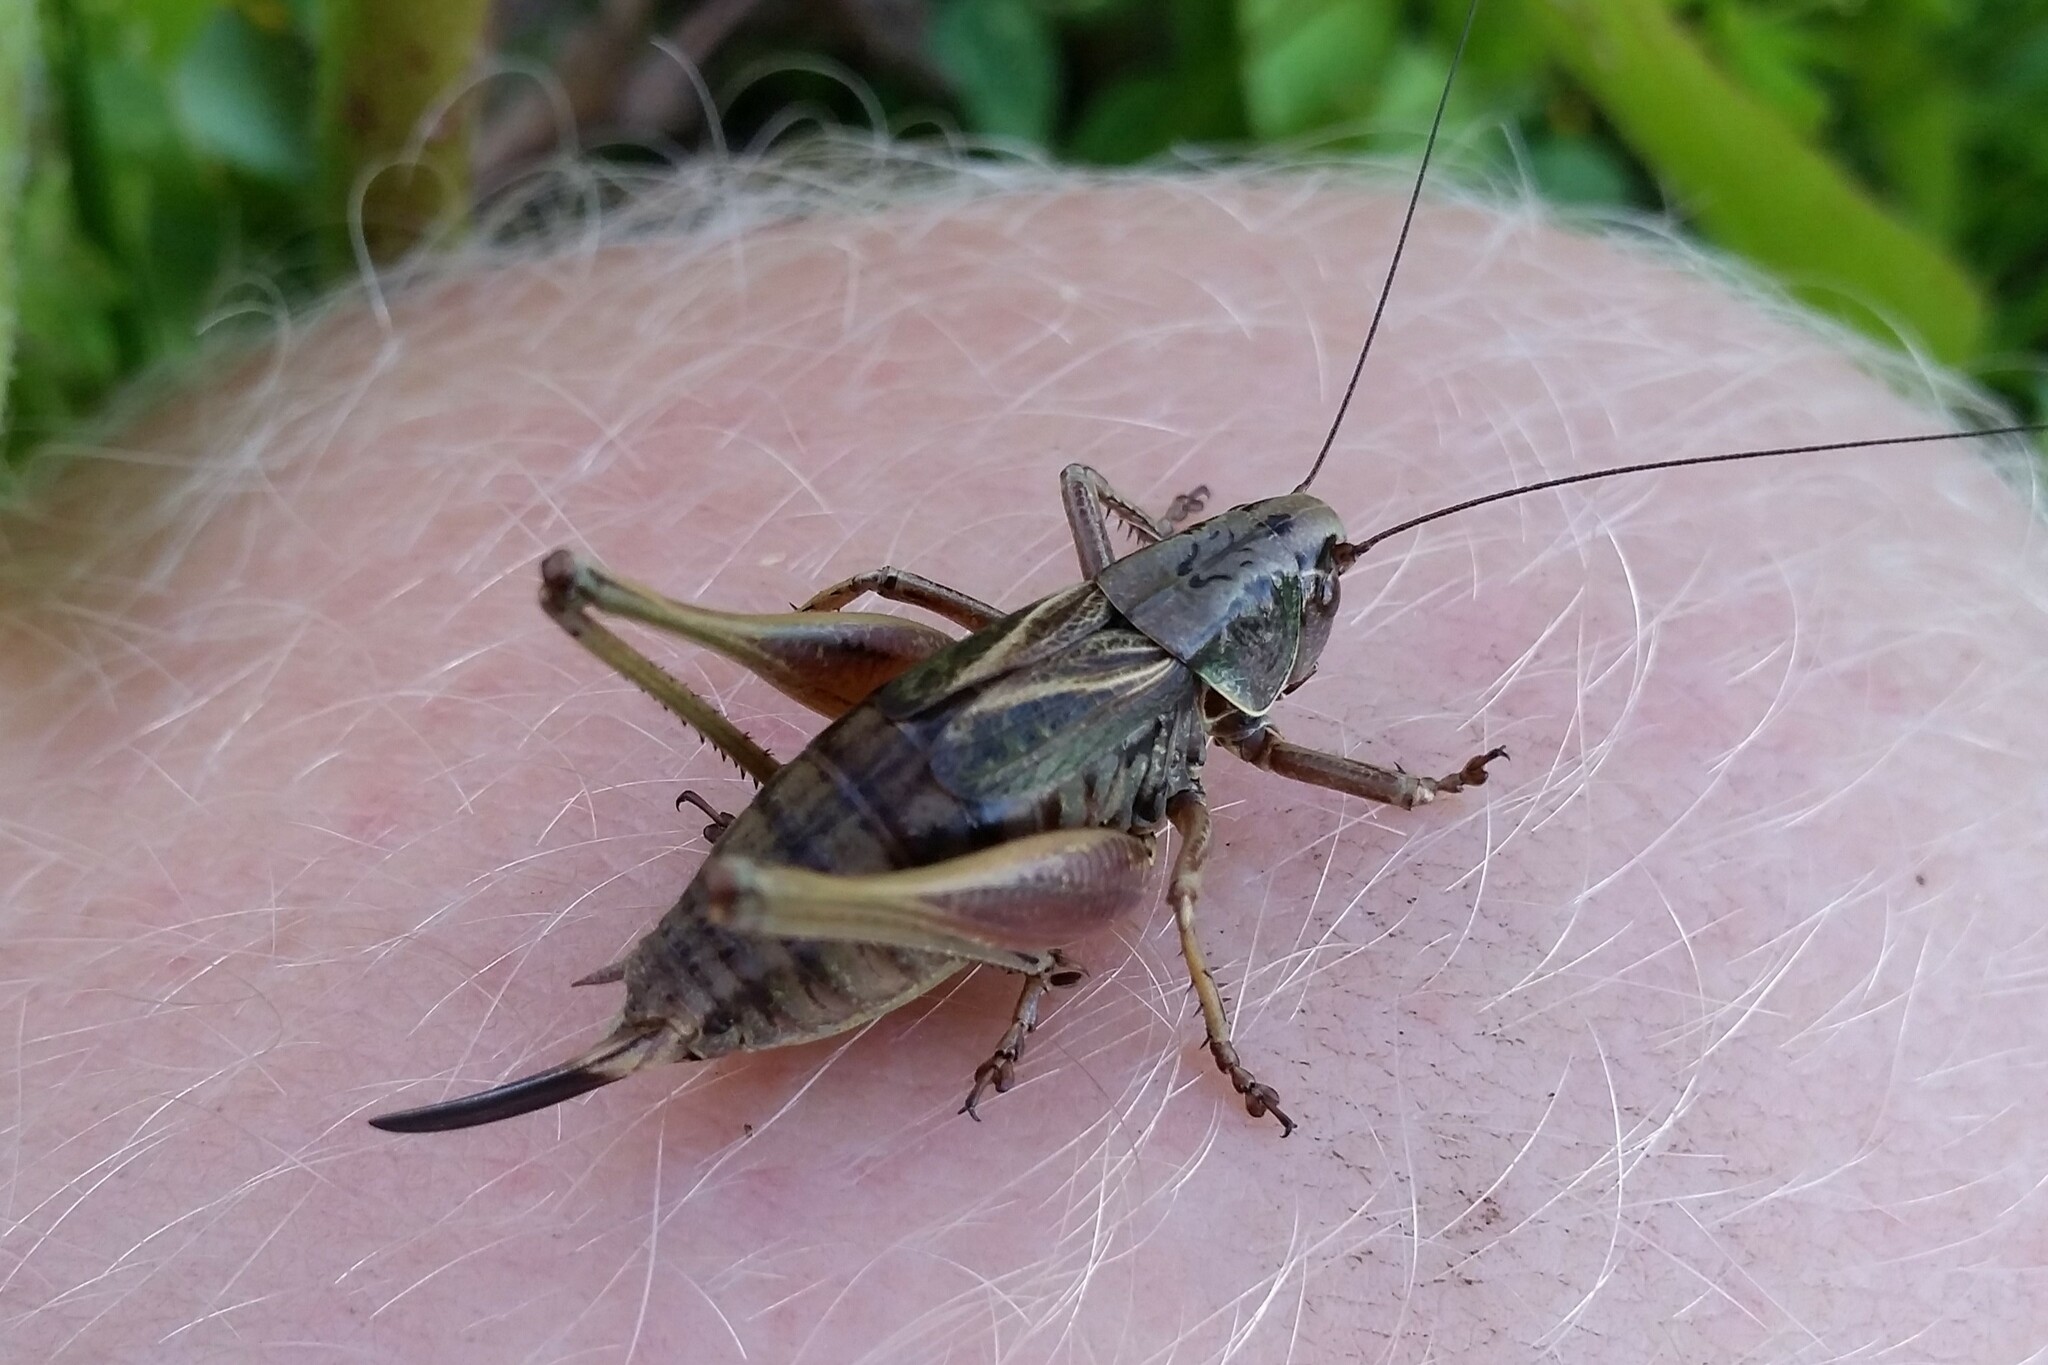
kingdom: Animalia
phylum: Arthropoda
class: Insecta
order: Orthoptera
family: Tettigoniidae
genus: Metrioptera
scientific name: Metrioptera saussuriana
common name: Purple meadow bush-cricket
